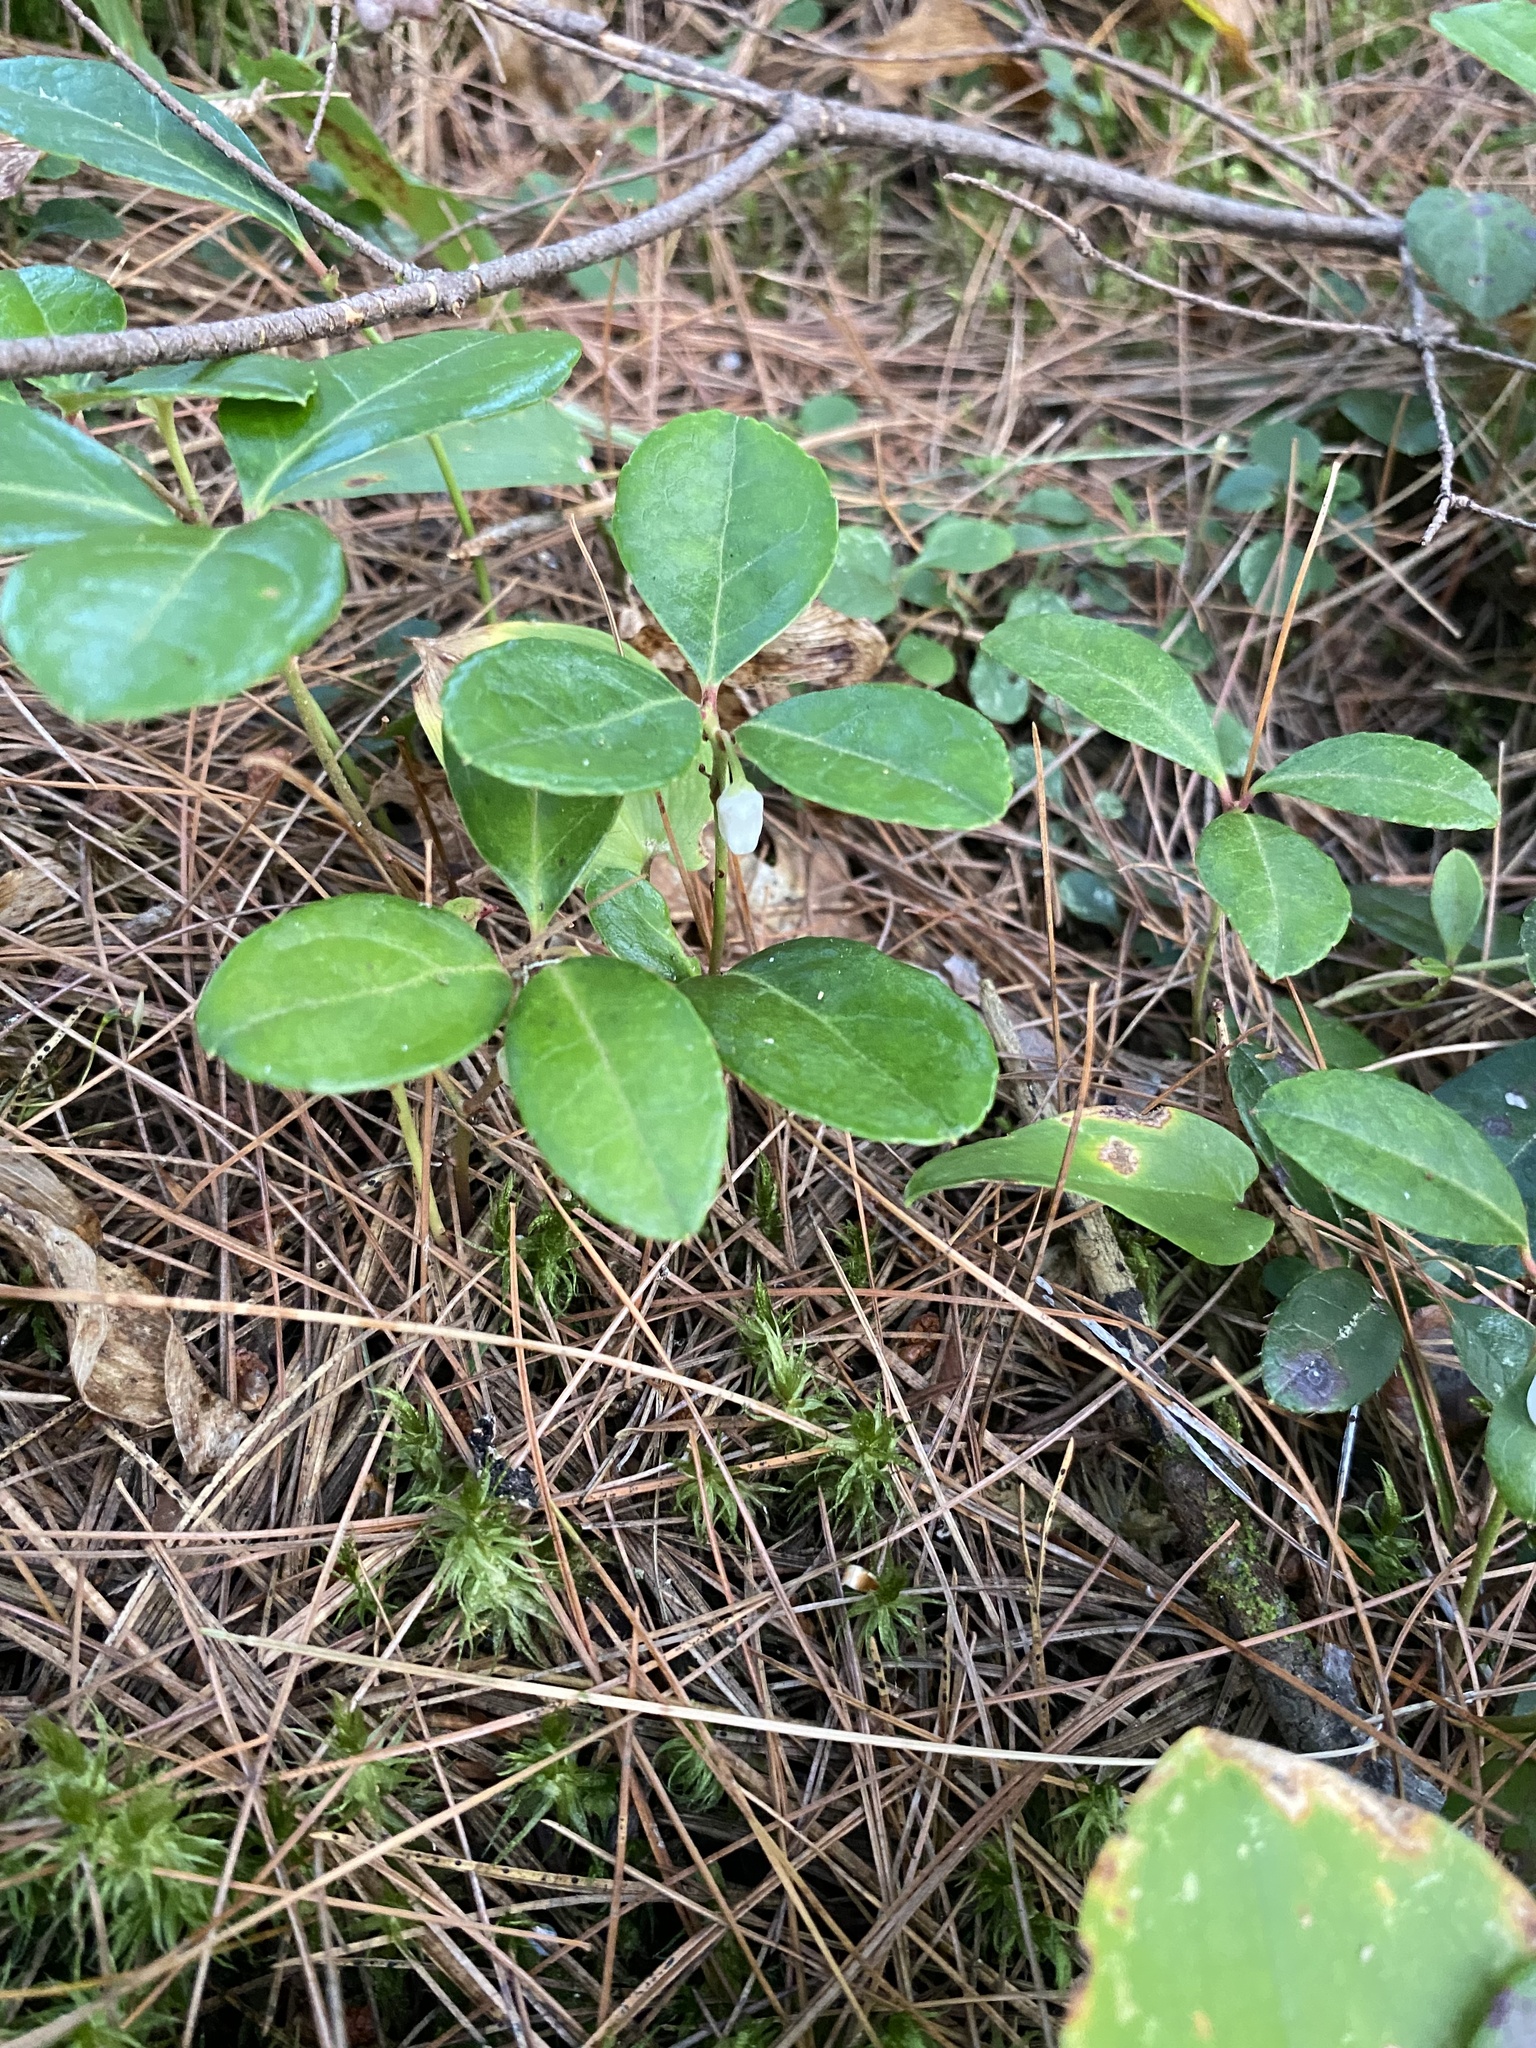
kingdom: Plantae
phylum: Tracheophyta
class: Magnoliopsida
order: Ericales
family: Ericaceae
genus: Gaultheria
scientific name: Gaultheria procumbens
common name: Checkerberry
